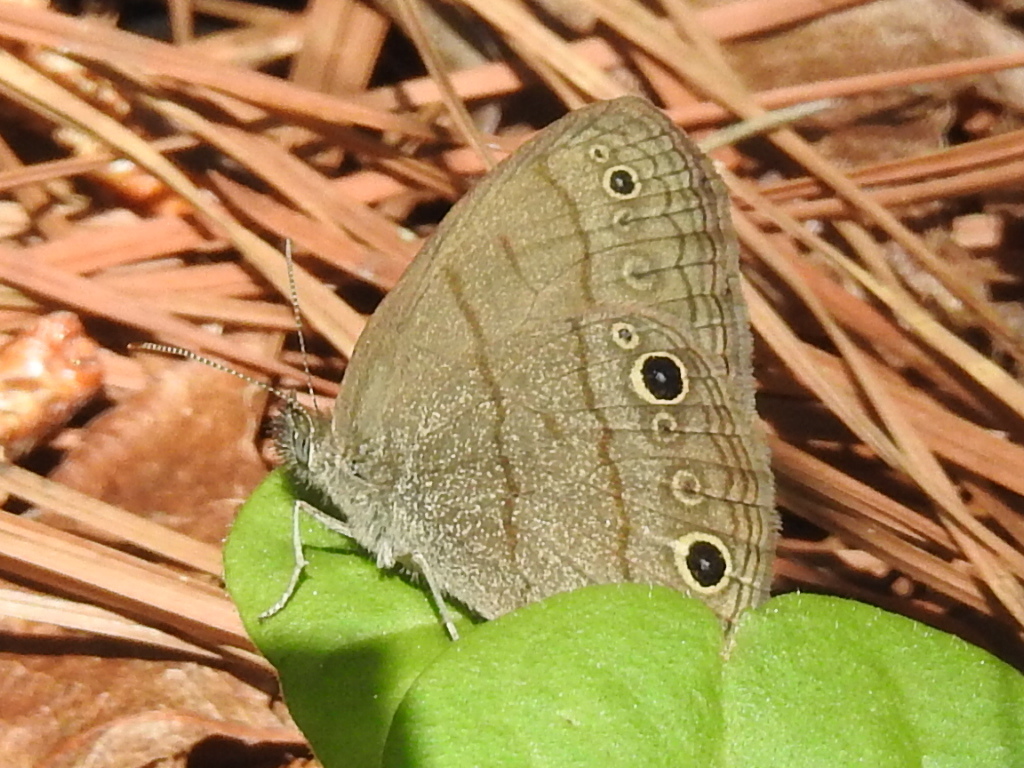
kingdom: Animalia
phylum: Arthropoda
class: Insecta
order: Lepidoptera
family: Nymphalidae
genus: Hermeuptychia
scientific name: Hermeuptychia hermes
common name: Hermes satyr
